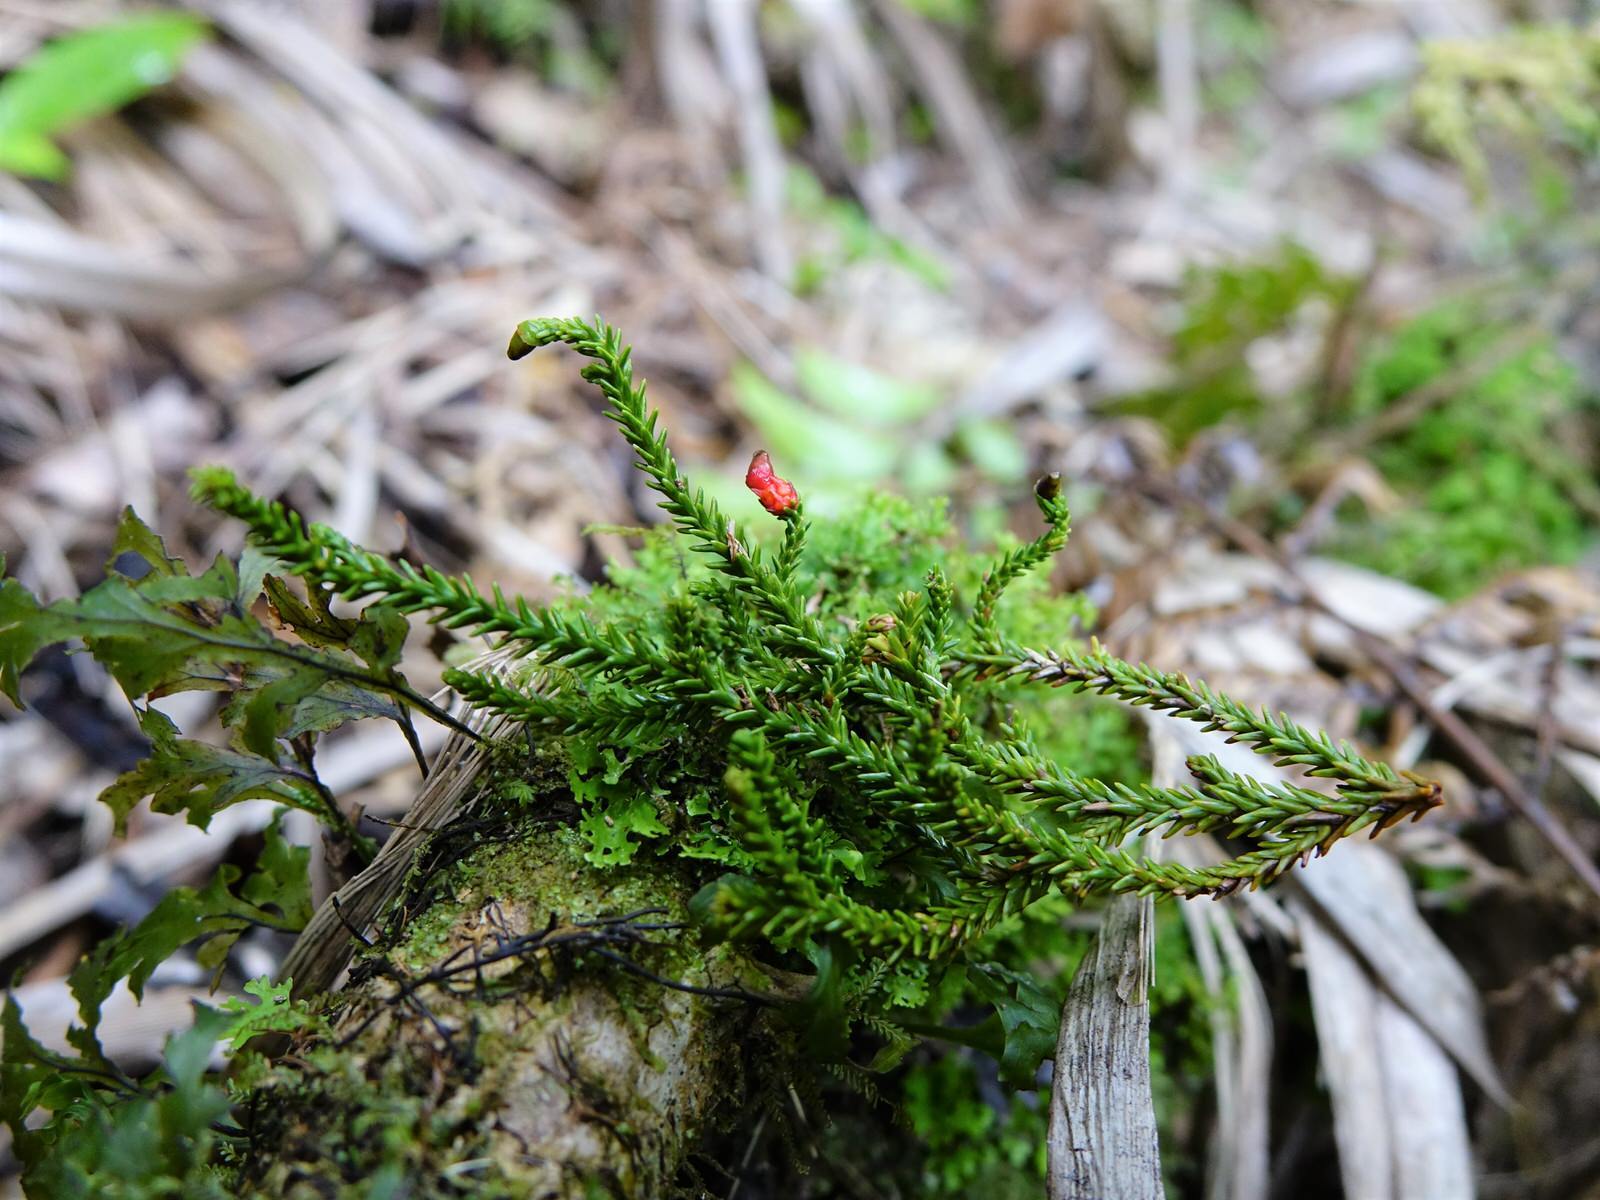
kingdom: Plantae
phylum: Tracheophyta
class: Pinopsida
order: Pinales
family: Podocarpaceae
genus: Dacrydium
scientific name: Dacrydium cupressinum
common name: Red pine
